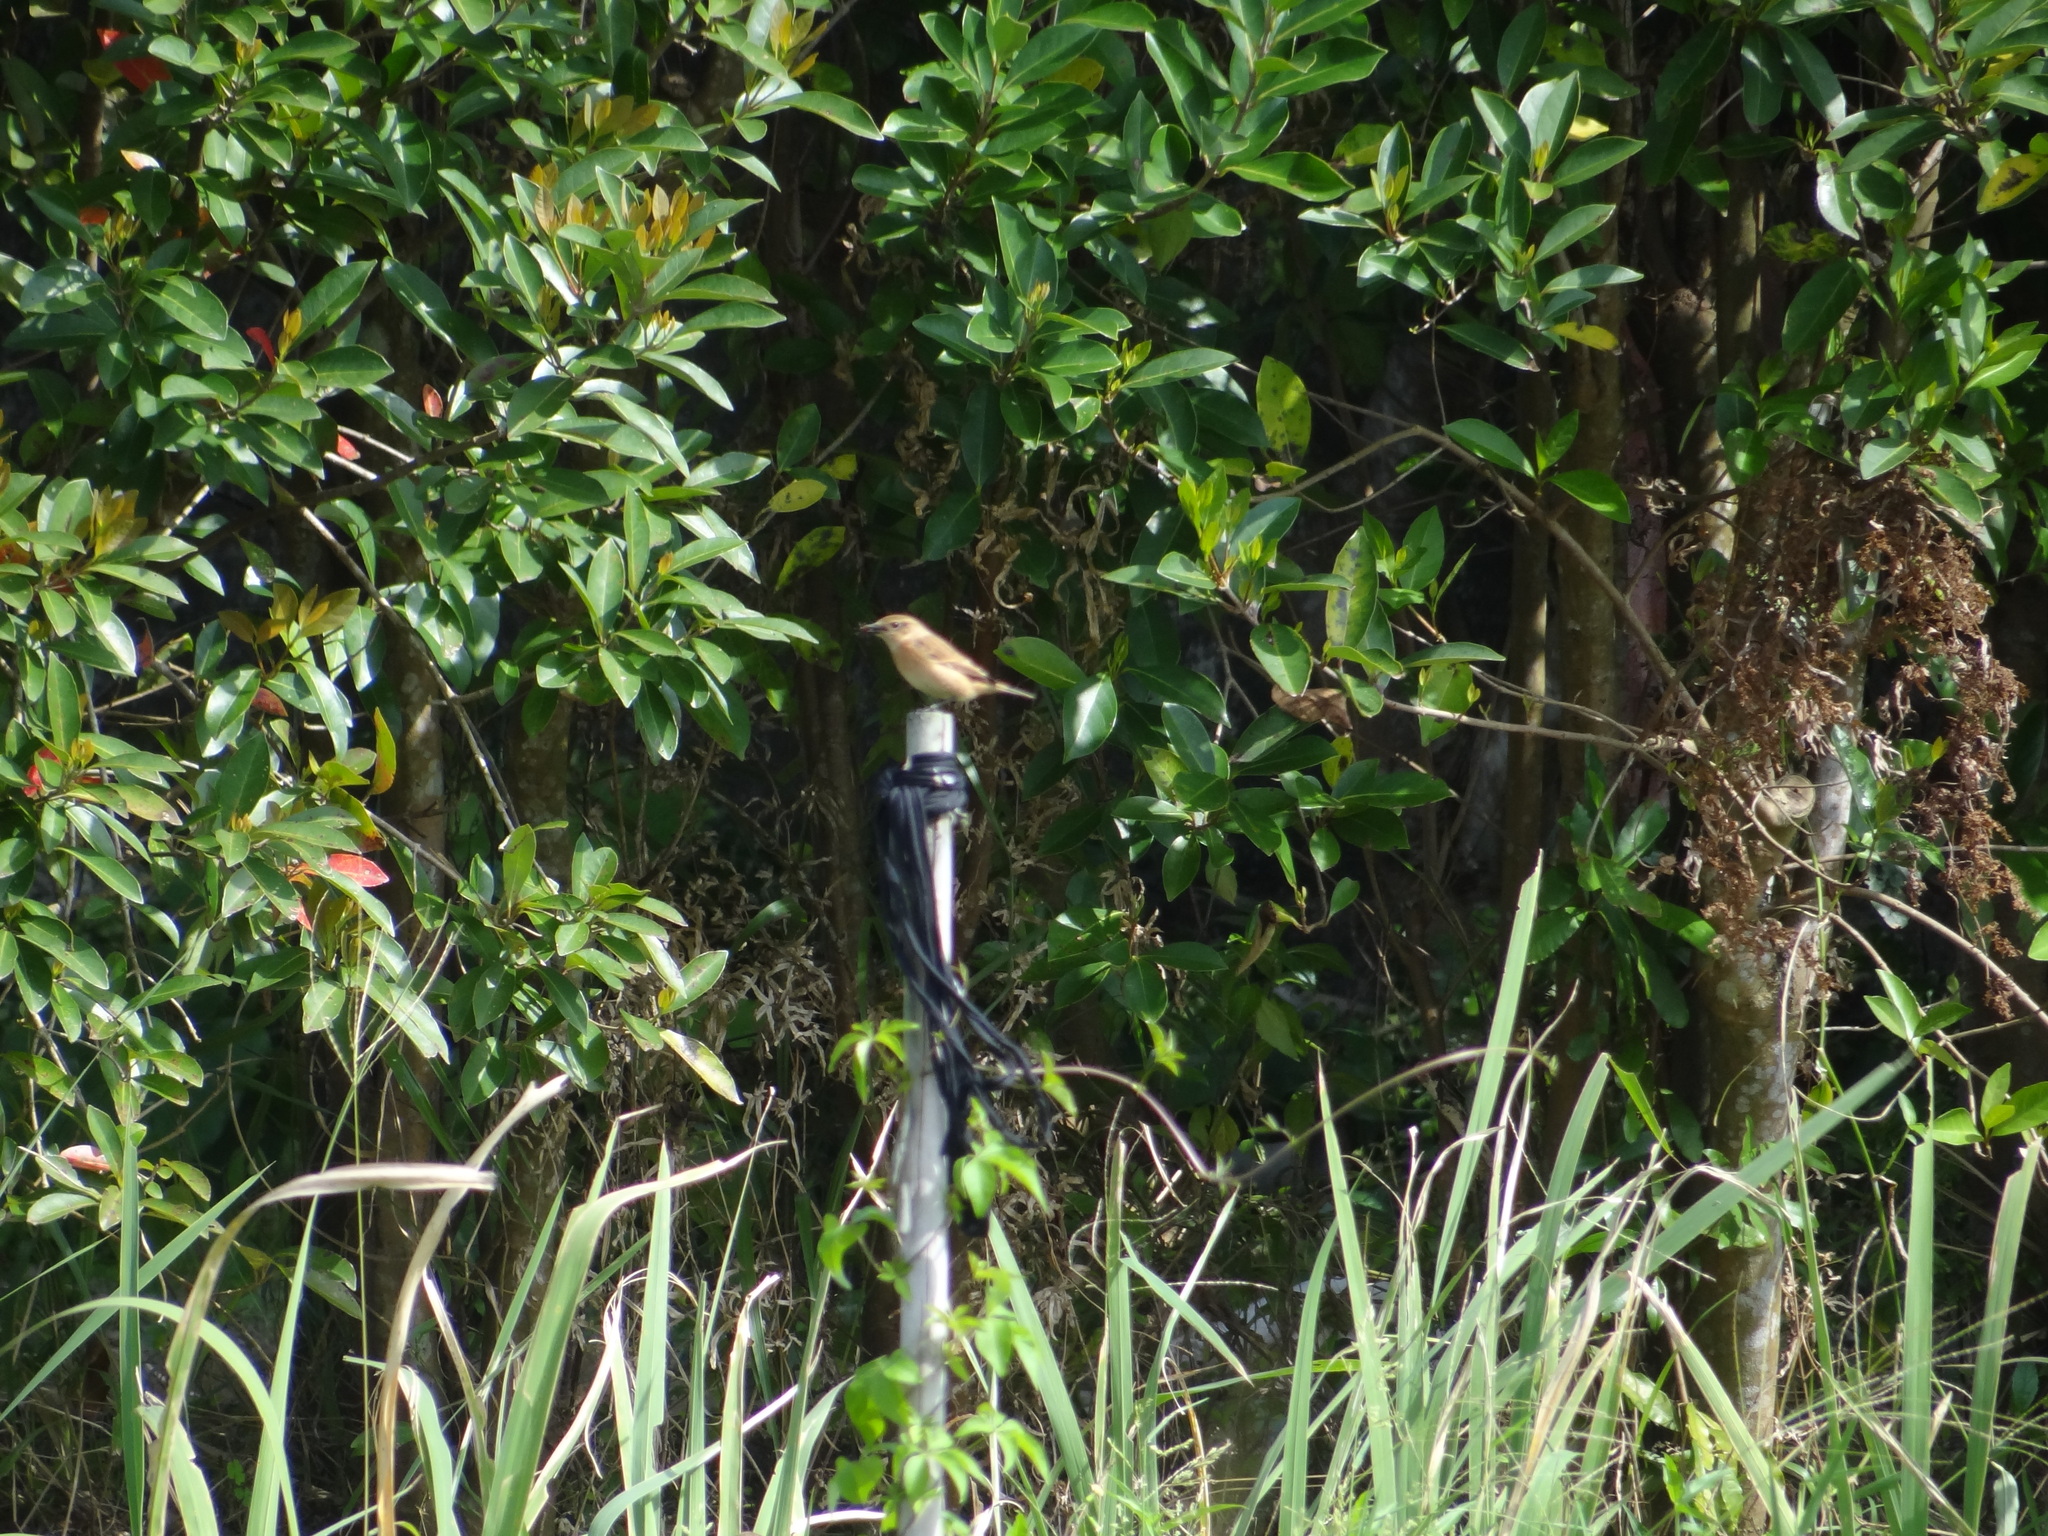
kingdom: Animalia
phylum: Chordata
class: Aves
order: Passeriformes
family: Muscicapidae
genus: Saxicola
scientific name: Saxicola stejnegeri
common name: Stejneger's stonechat
